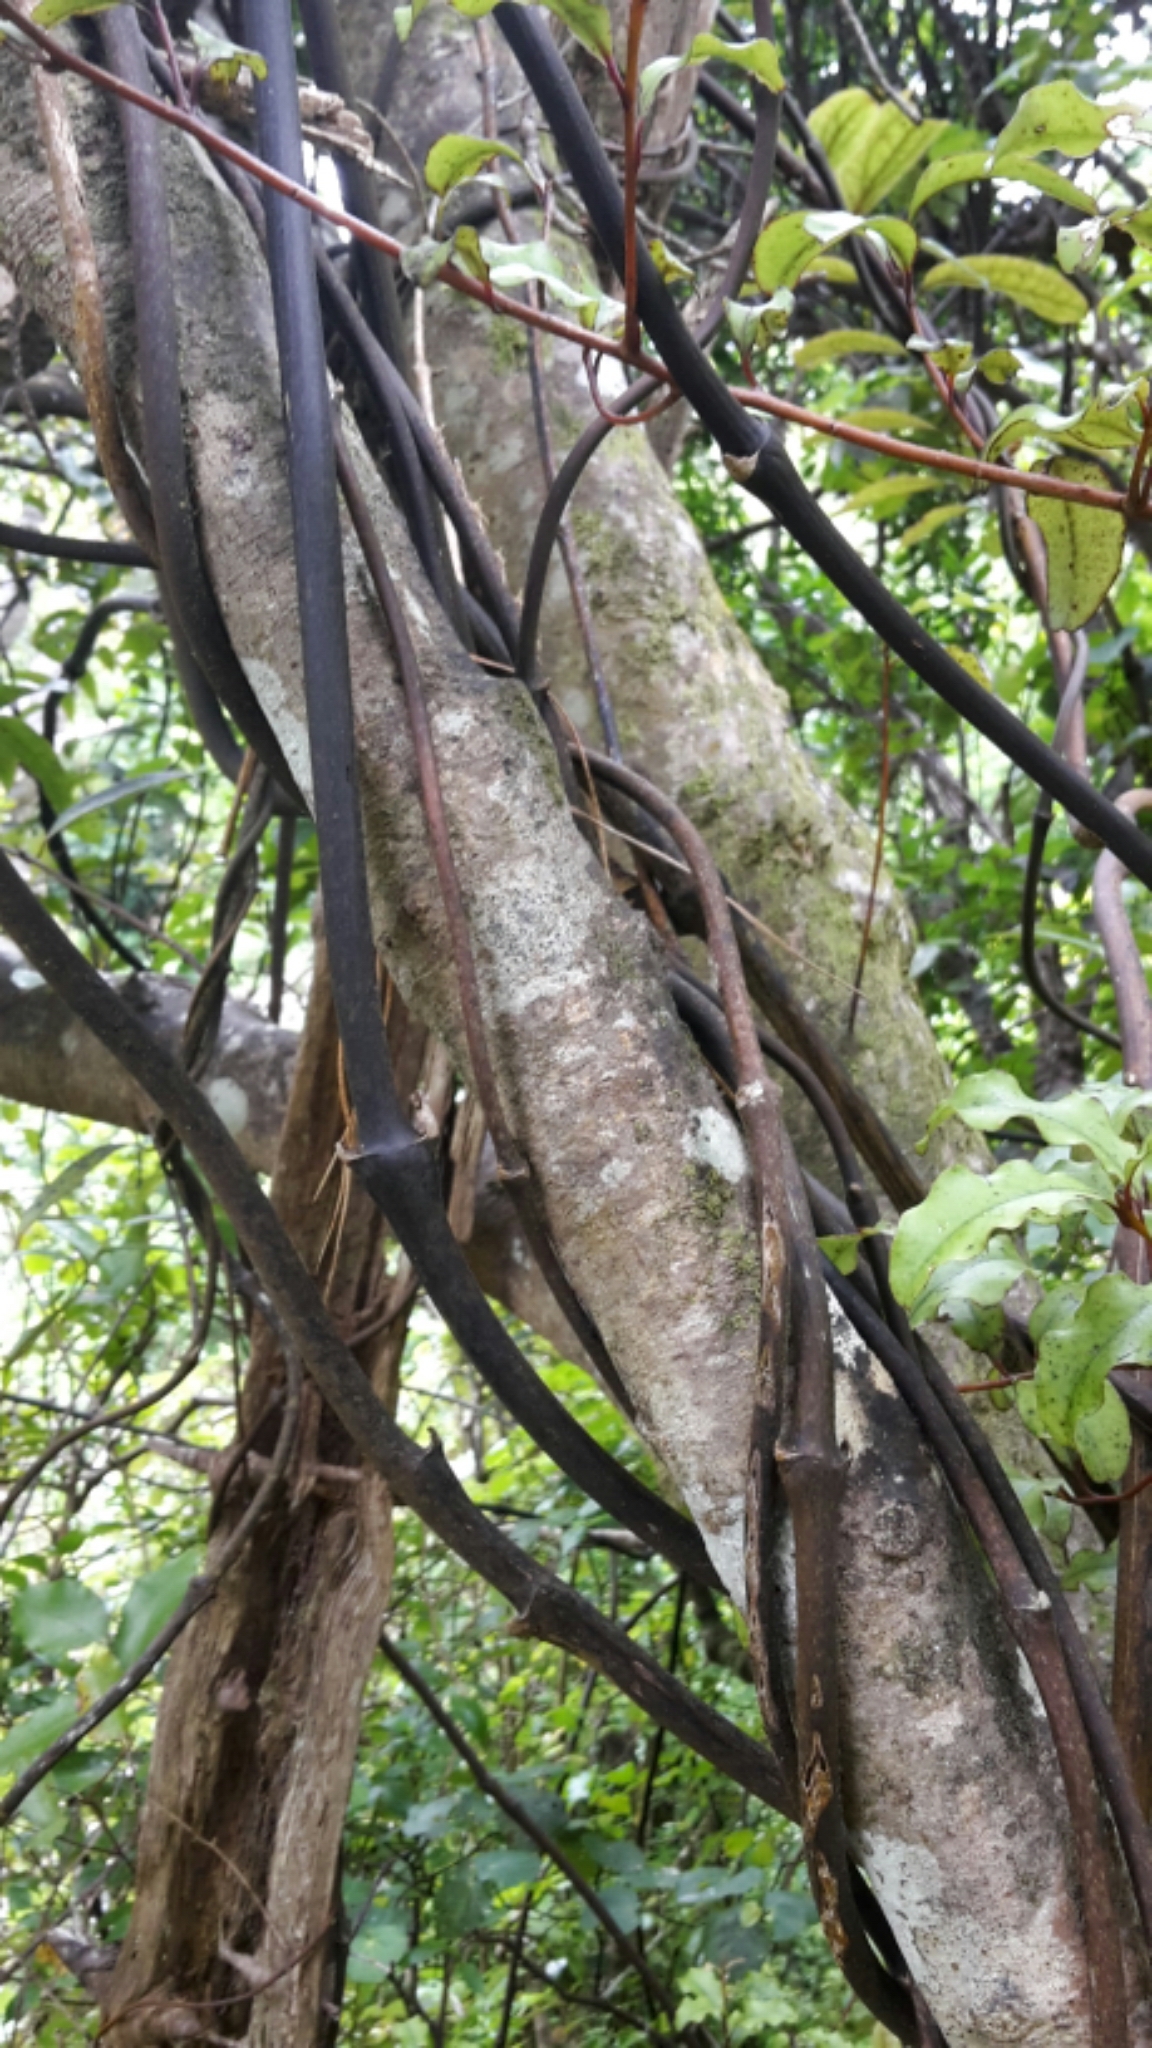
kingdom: Plantae
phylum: Tracheophyta
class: Liliopsida
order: Liliales
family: Ripogonaceae
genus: Ripogonum
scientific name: Ripogonum scandens
